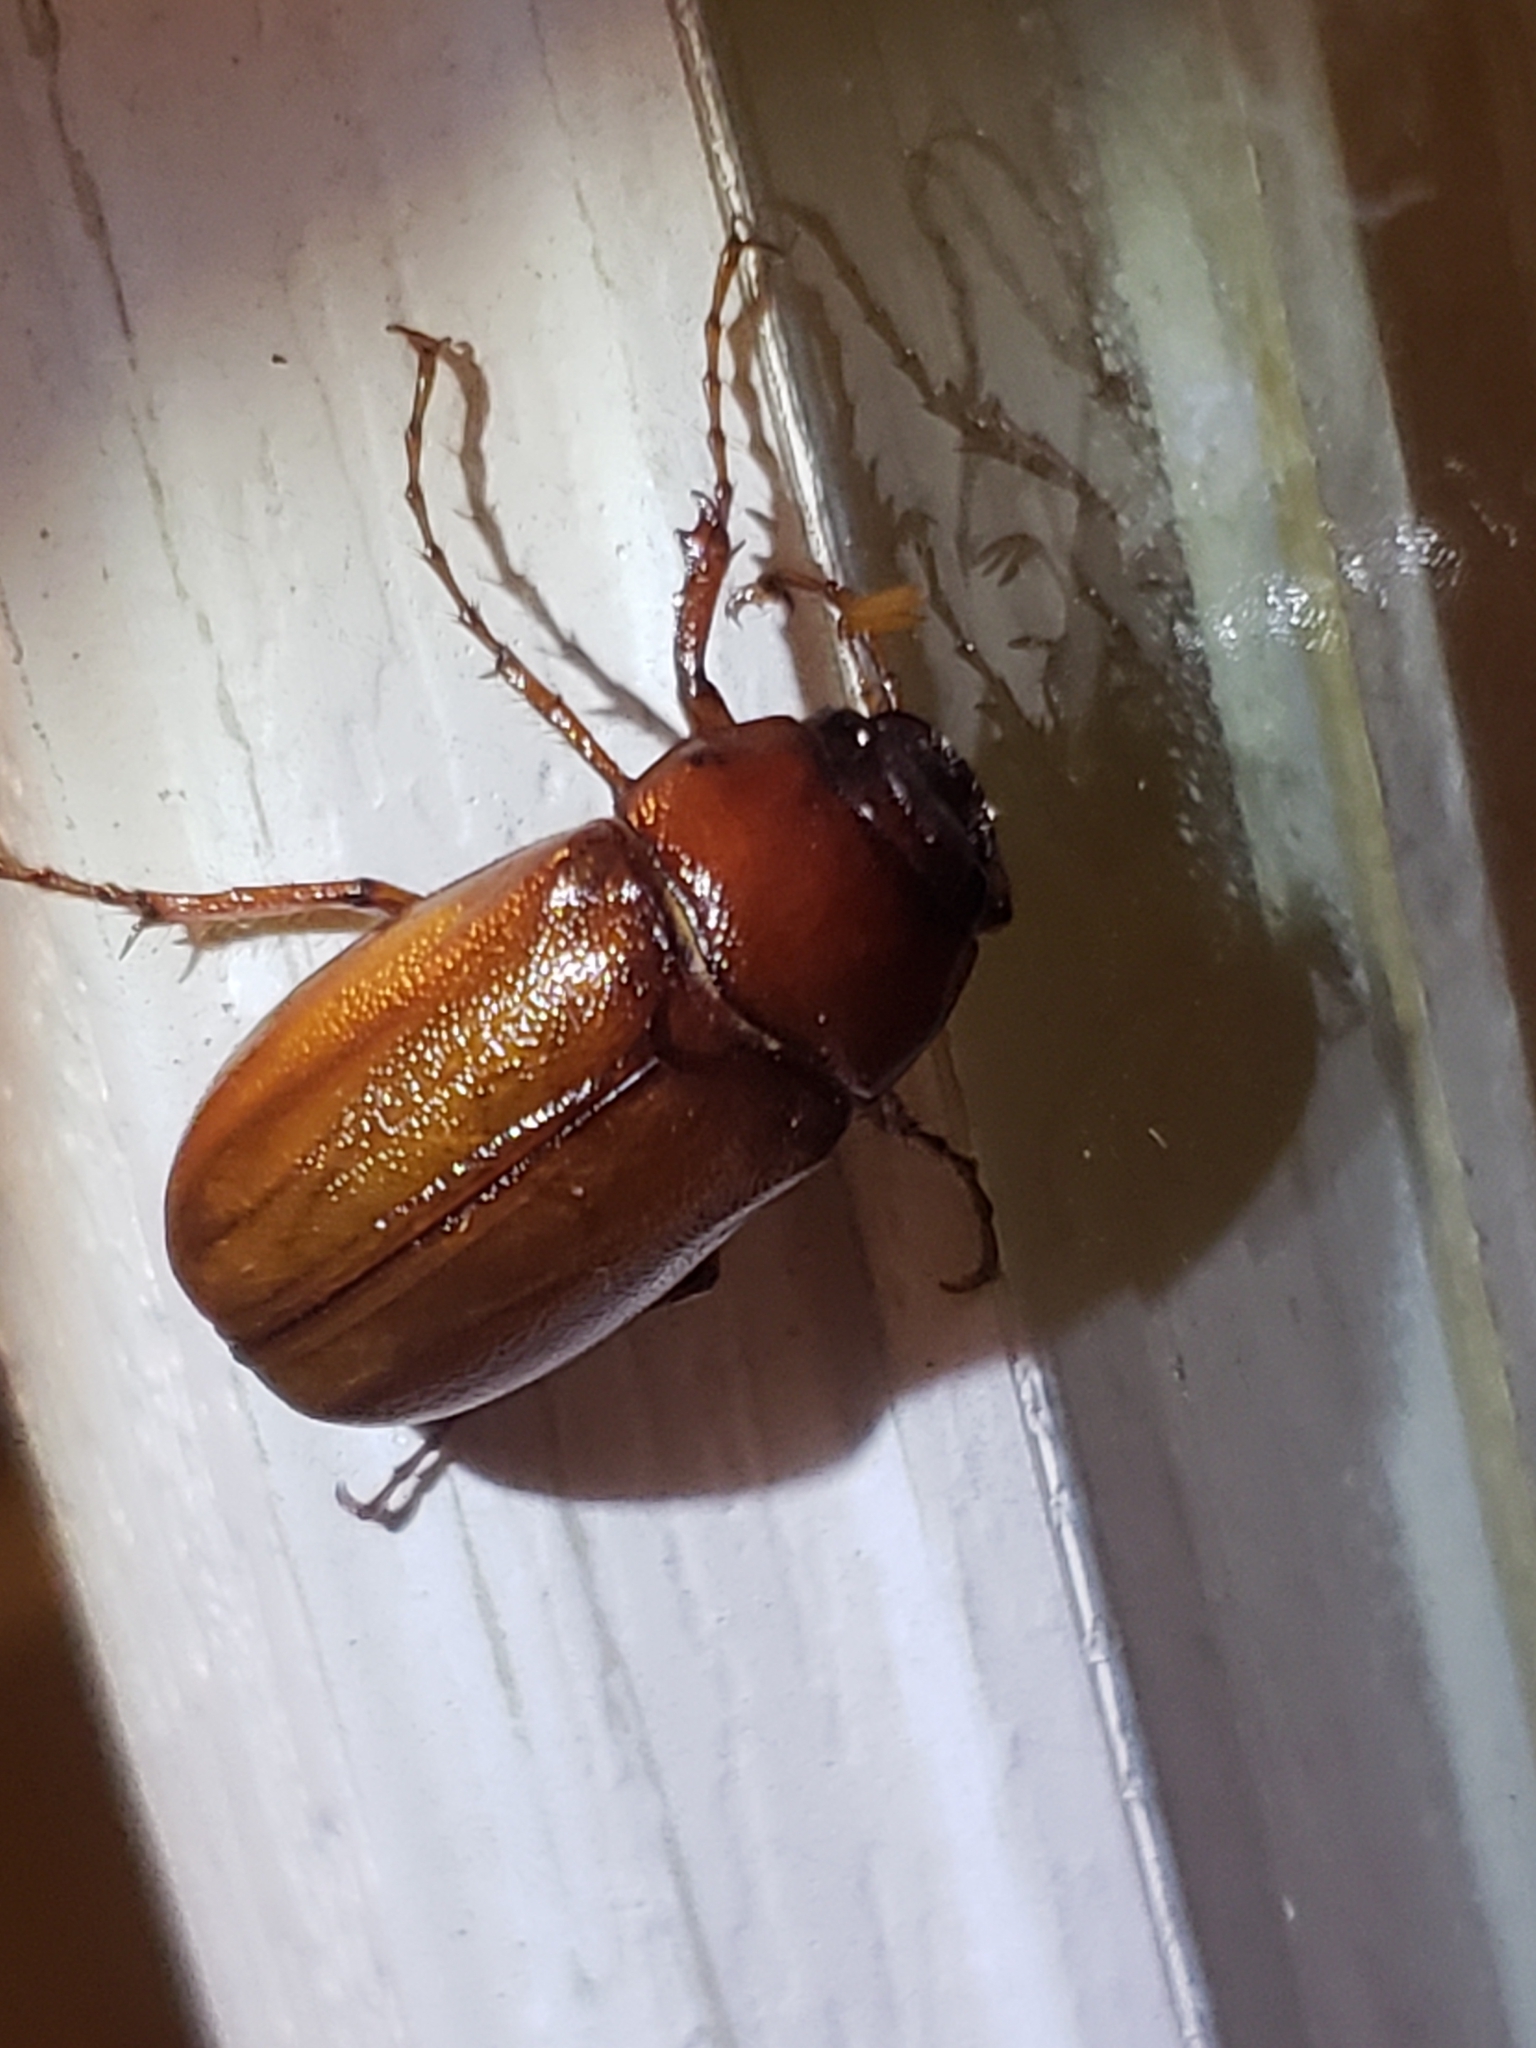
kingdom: Animalia
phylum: Arthropoda
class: Insecta
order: Coleoptera
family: Scarabaeidae
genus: Cyclocephala
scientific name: Cyclocephala lurida
